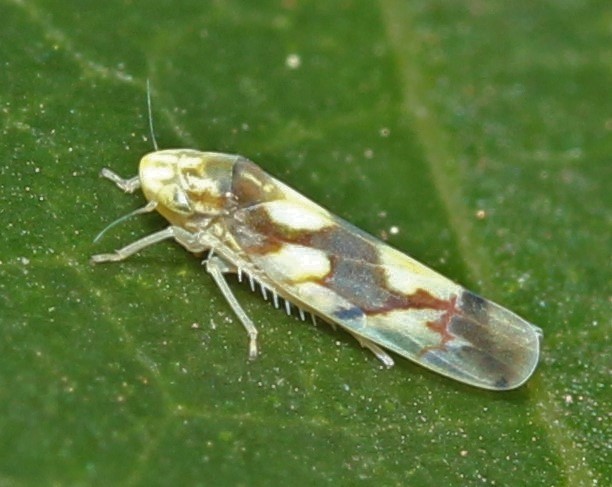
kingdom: Animalia
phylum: Arthropoda
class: Insecta
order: Hemiptera
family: Cicadellidae
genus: Erythroneura
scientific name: Erythroneura elegans
